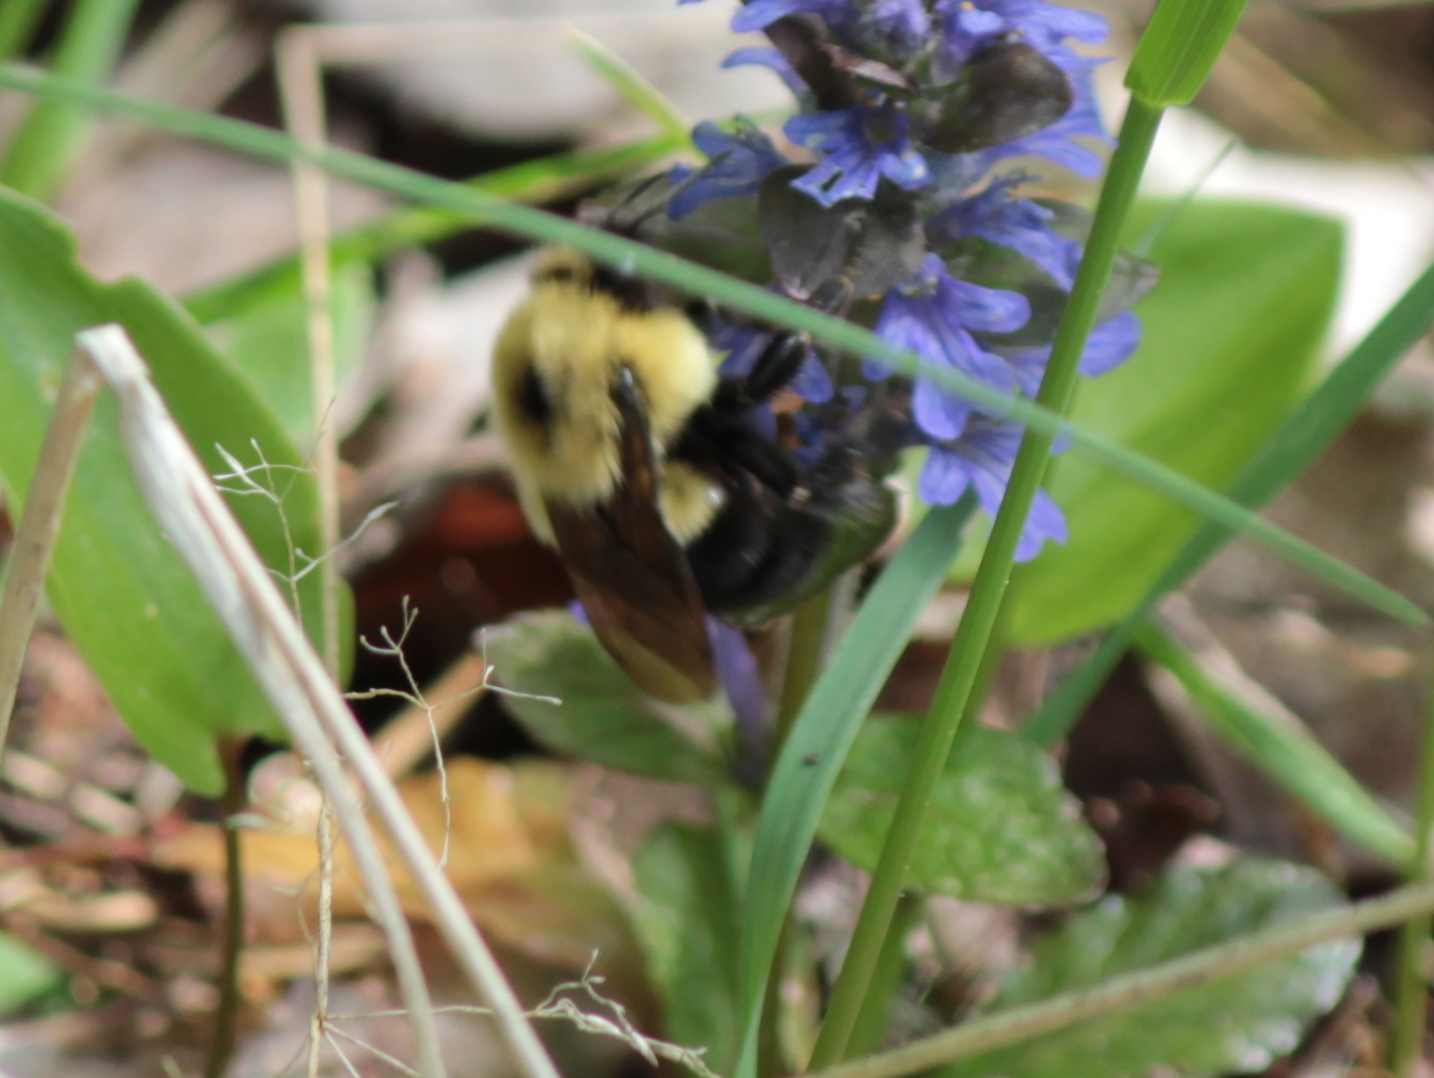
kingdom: Animalia
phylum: Arthropoda
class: Insecta
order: Hymenoptera
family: Apidae
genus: Bombus
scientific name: Bombus bimaculatus
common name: Two-spotted bumble bee
